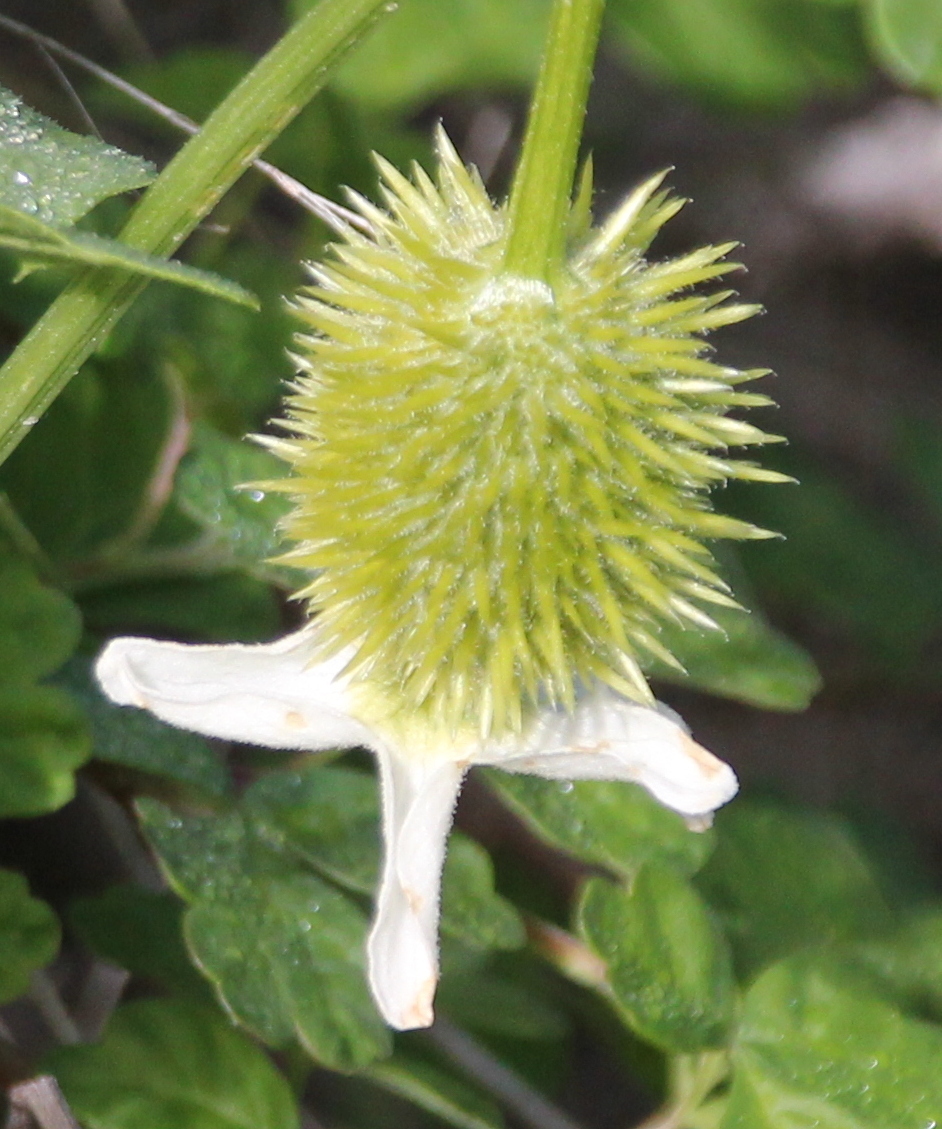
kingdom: Plantae
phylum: Tracheophyta
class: Magnoliopsida
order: Cucurbitales
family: Cucurbitaceae
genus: Marah
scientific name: Marah macrocarpa
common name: Cucamonga manroot
